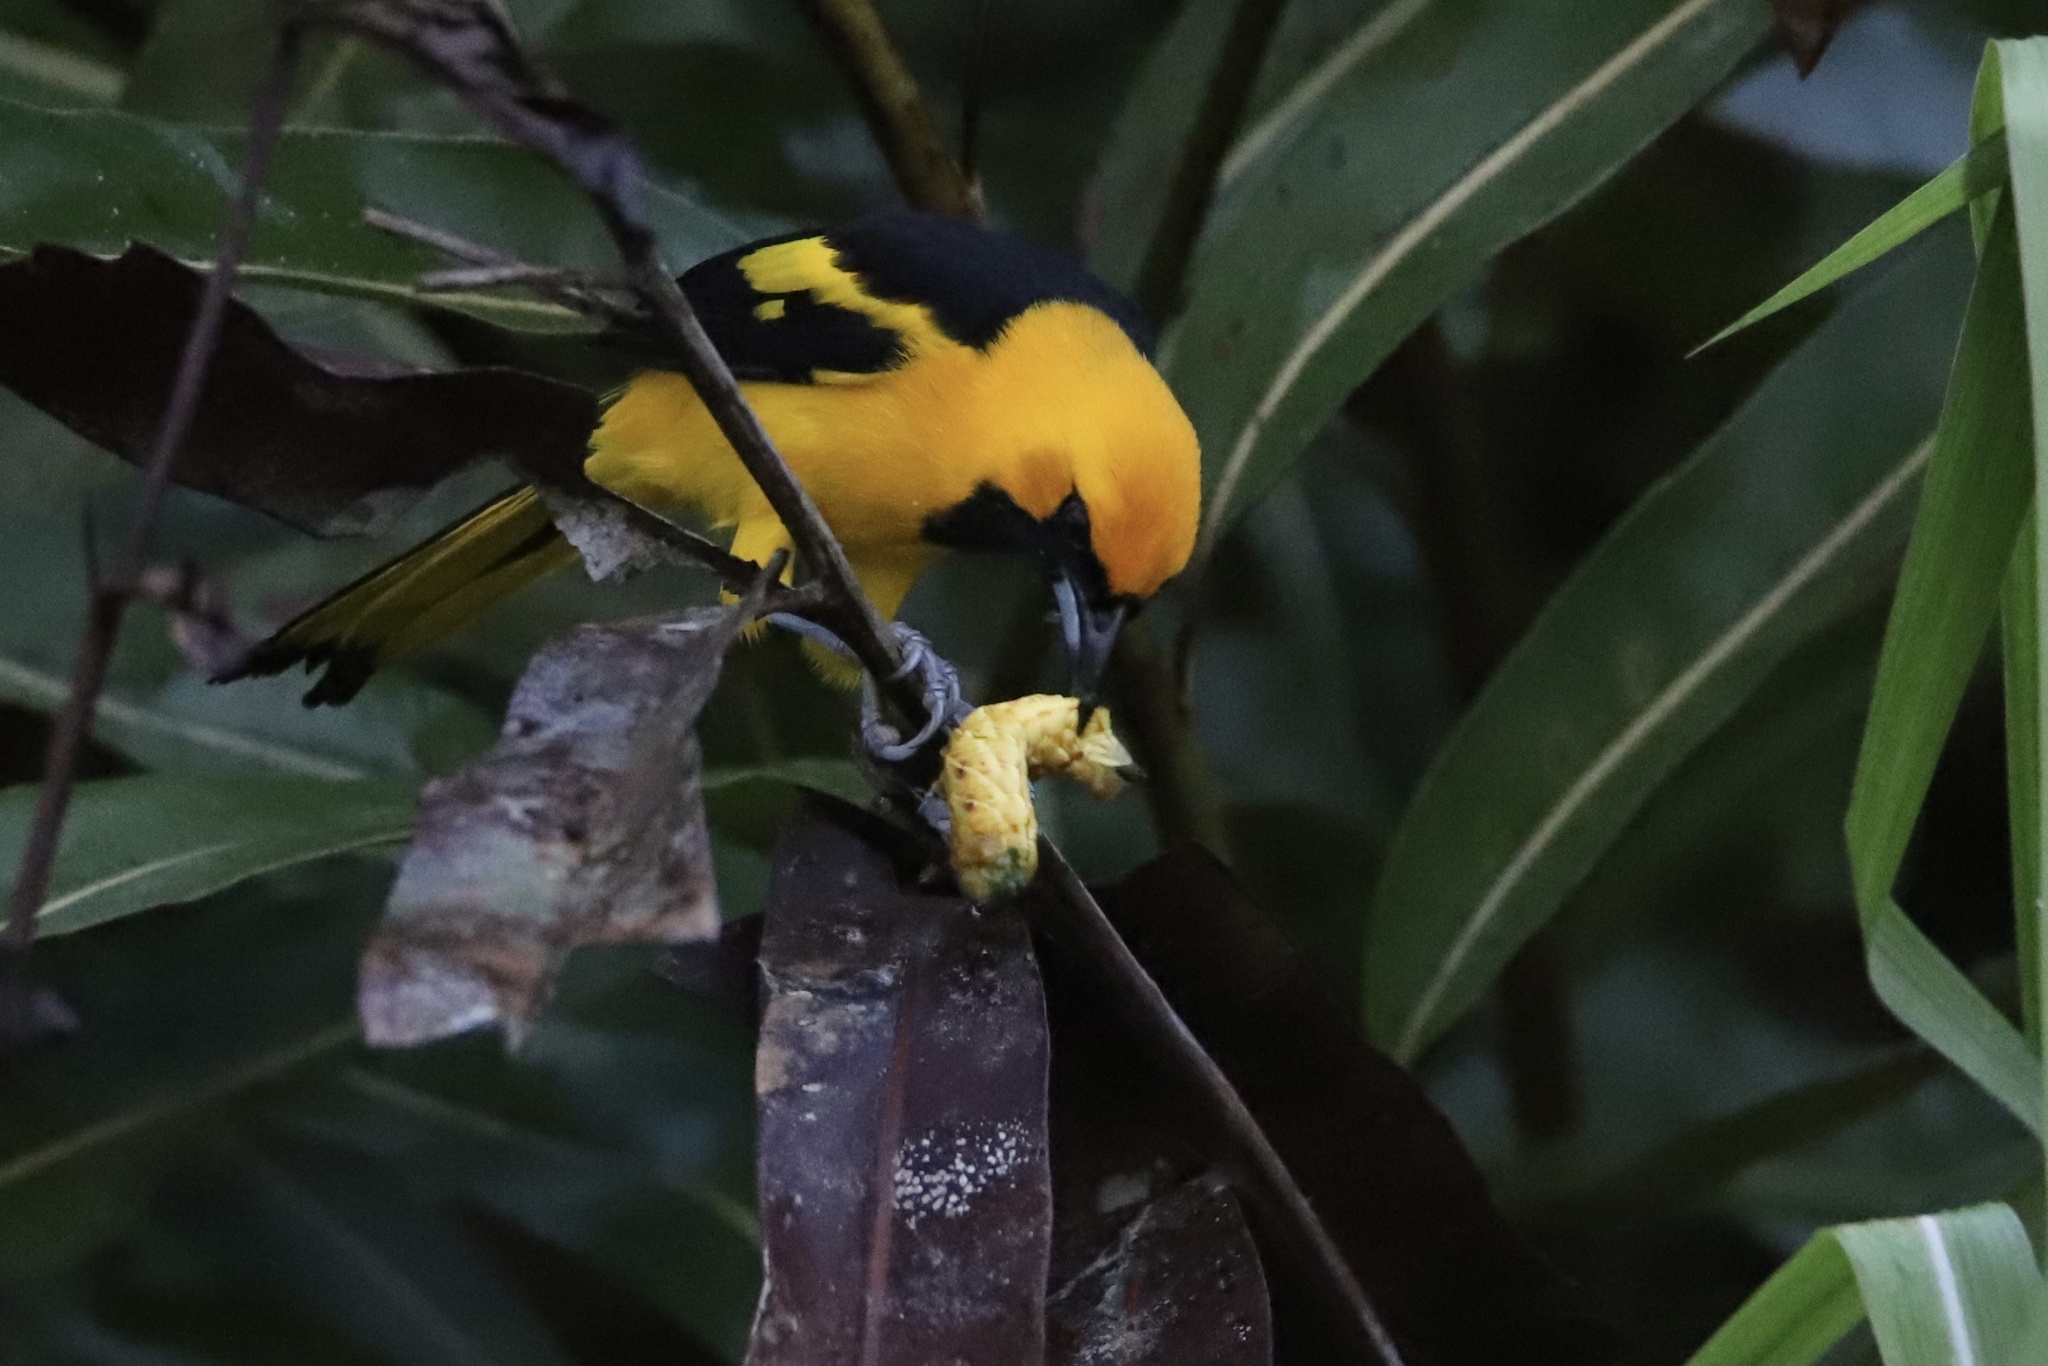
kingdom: Animalia
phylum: Chordata
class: Aves
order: Passeriformes
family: Icteridae
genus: Icterus
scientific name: Icterus mesomelas
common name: Yellow-tailed oriole
